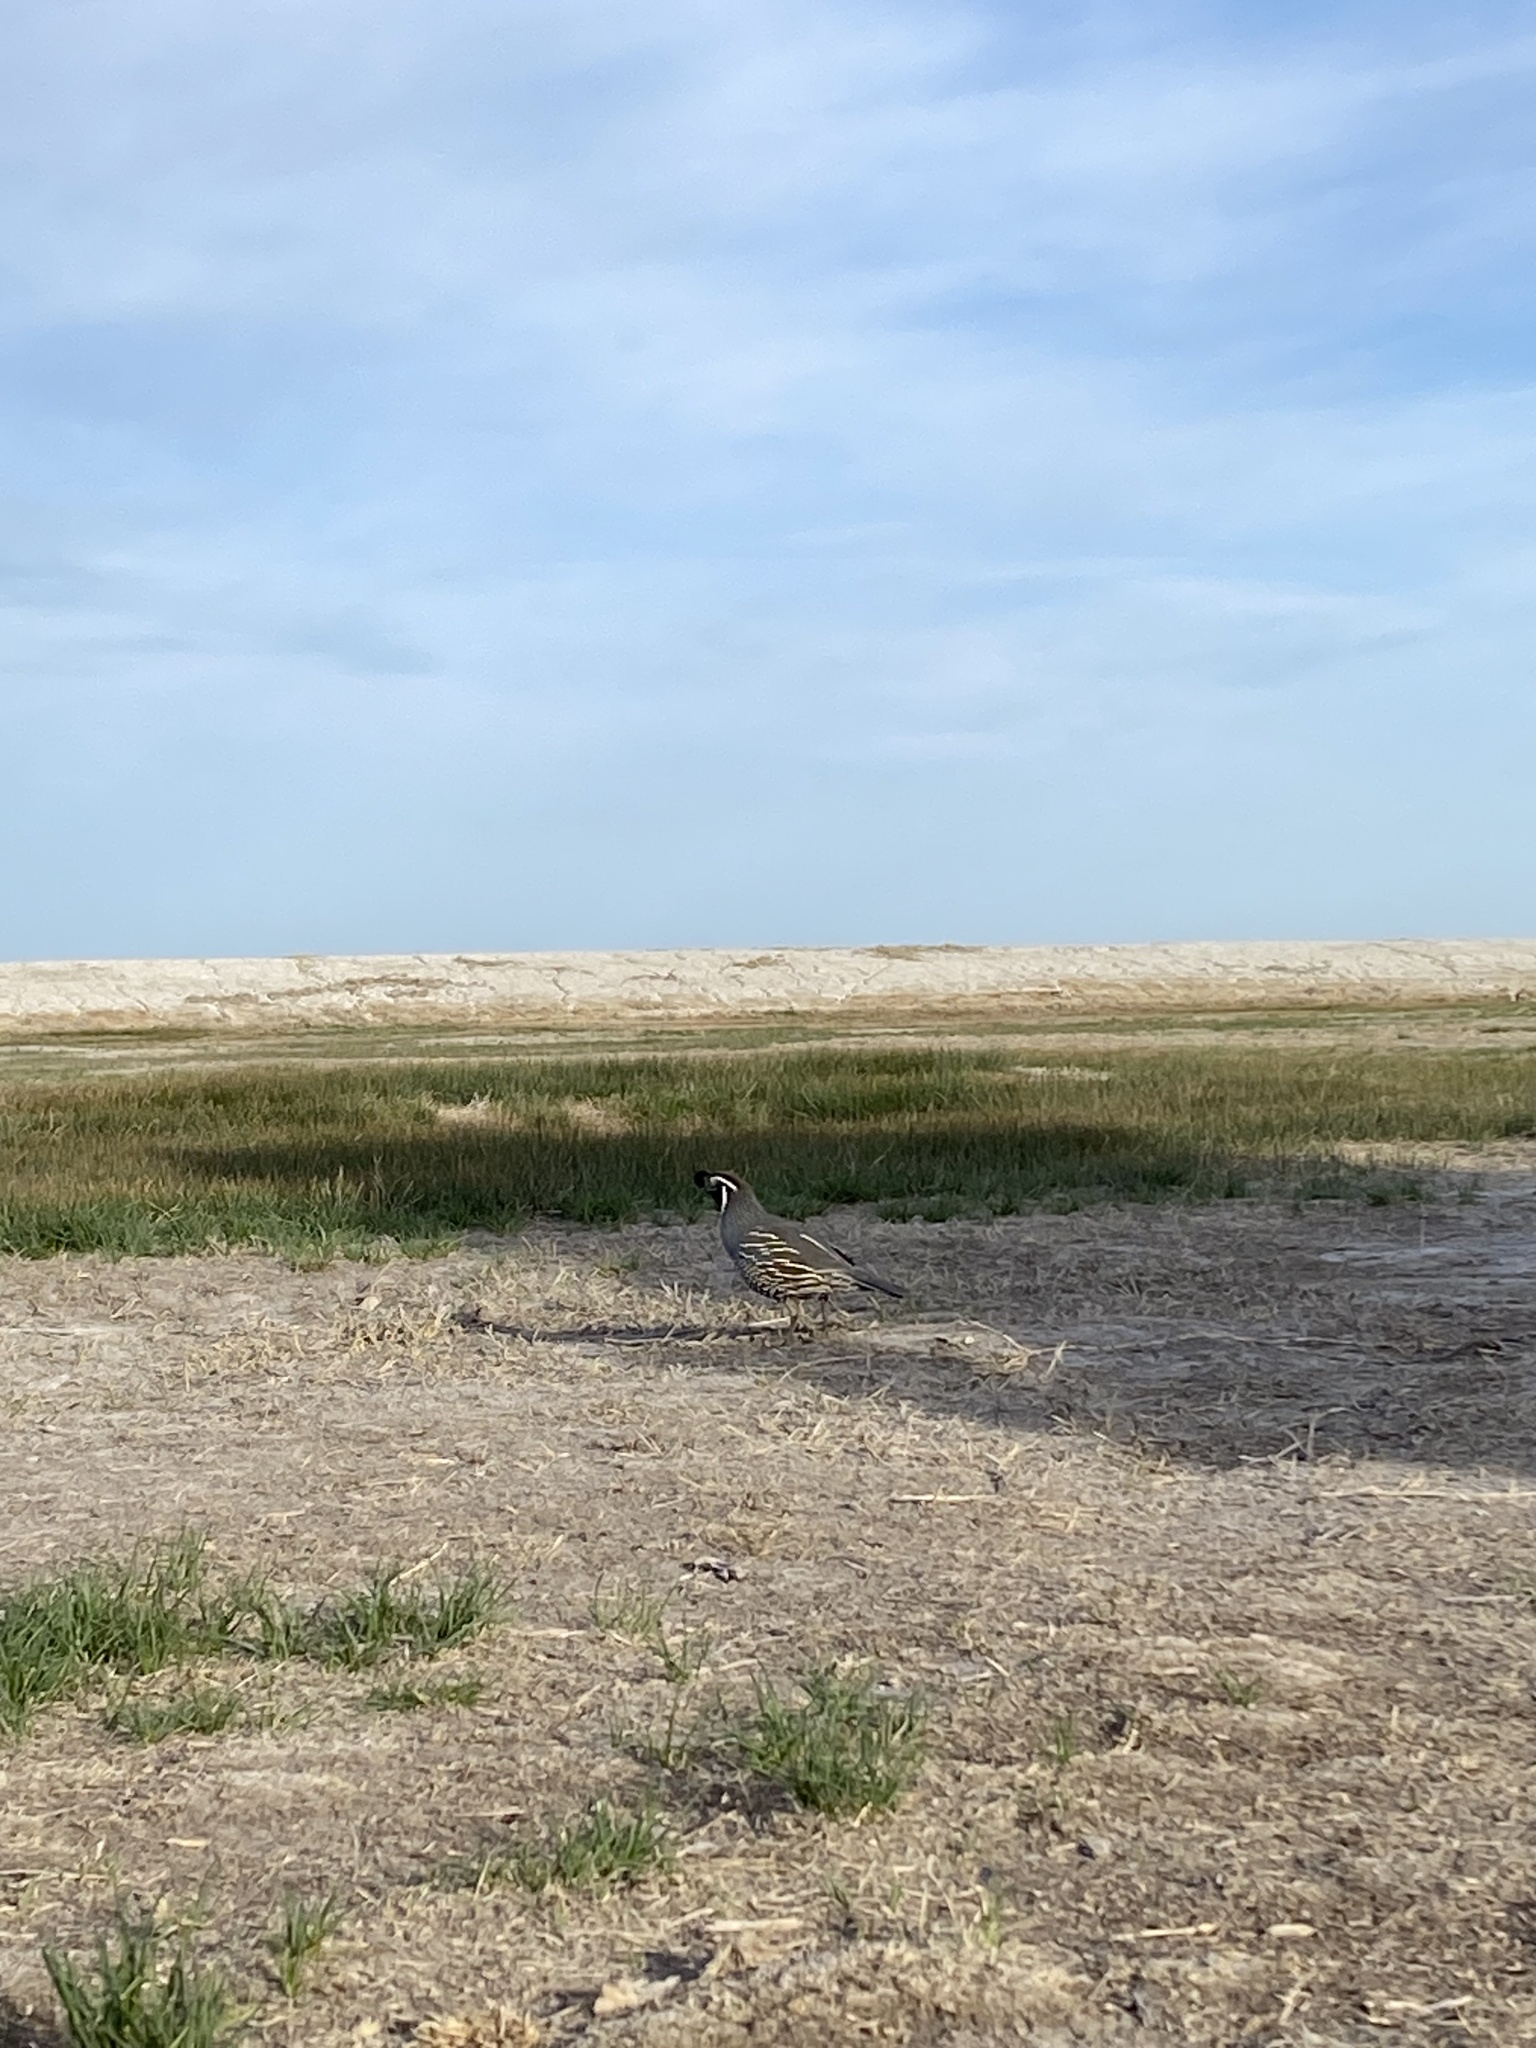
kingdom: Animalia
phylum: Chordata
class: Aves
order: Galliformes
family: Odontophoridae
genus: Callipepla
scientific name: Callipepla californica
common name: California quail
